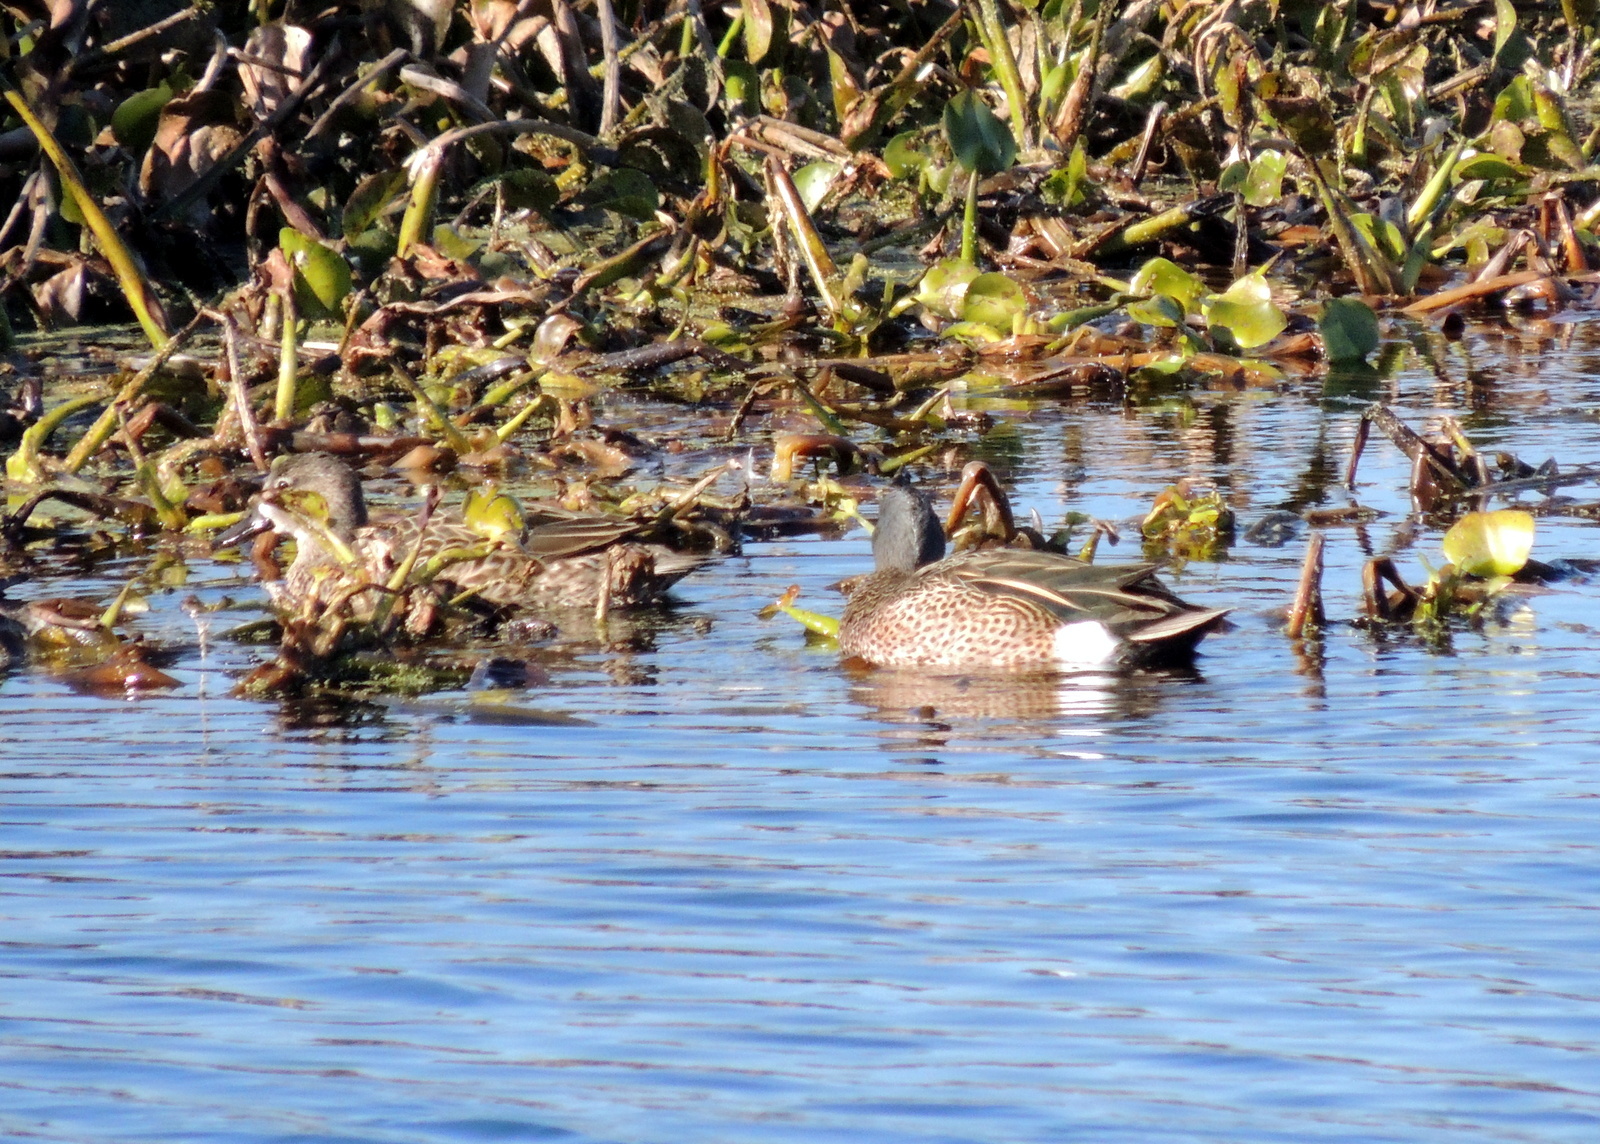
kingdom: Animalia
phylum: Chordata
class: Aves
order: Anseriformes
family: Anatidae
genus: Spatula
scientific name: Spatula discors
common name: Blue-winged teal
